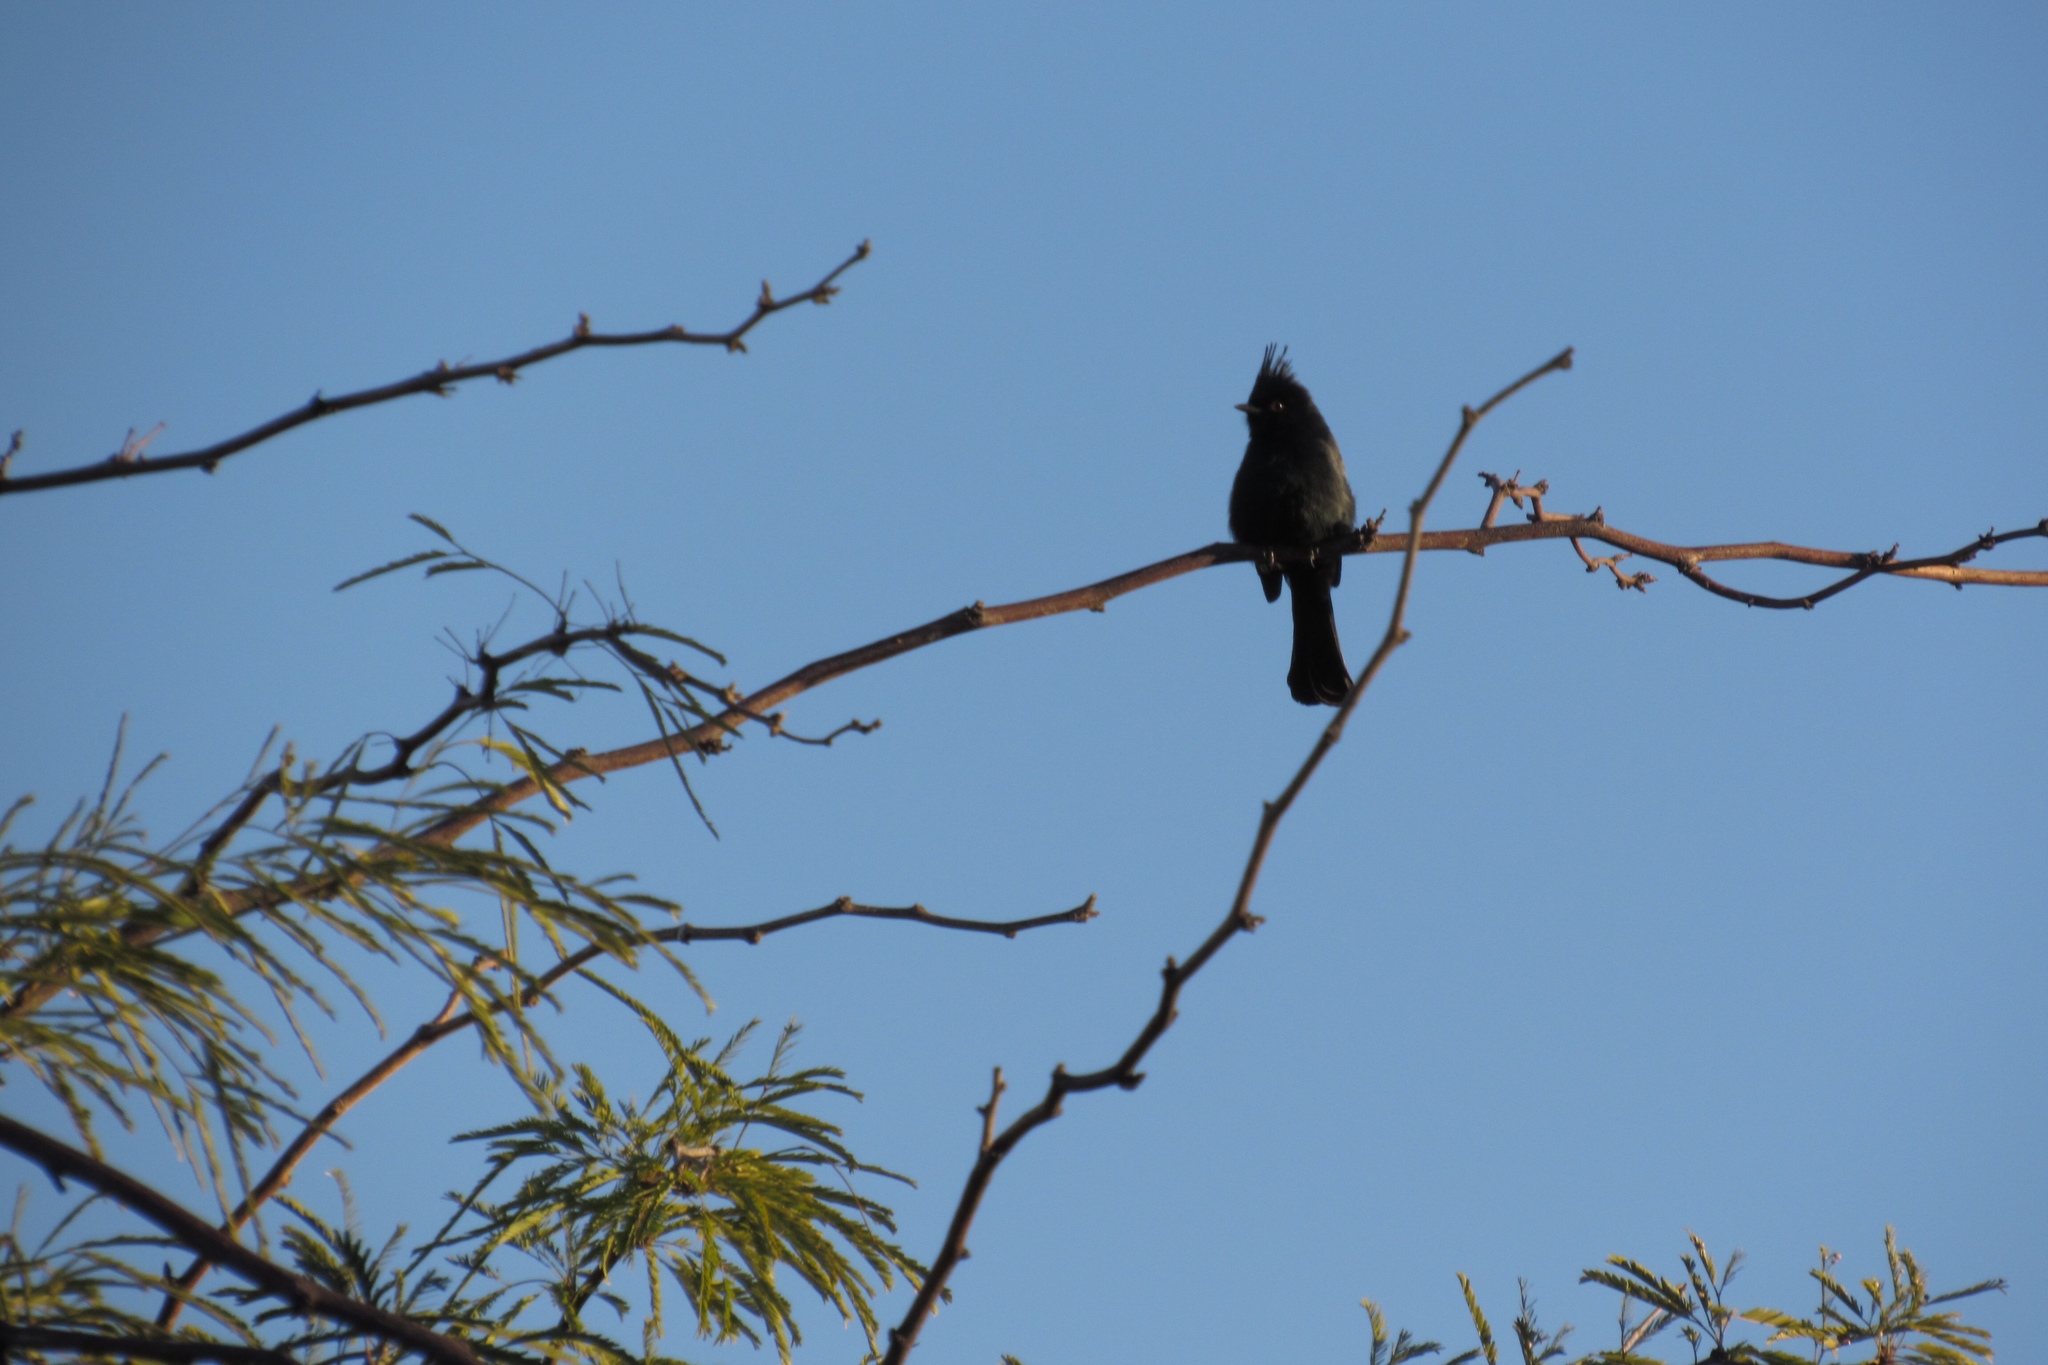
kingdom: Animalia
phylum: Chordata
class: Aves
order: Passeriformes
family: Ptilogonatidae
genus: Phainopepla
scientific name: Phainopepla nitens
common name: Phainopepla
